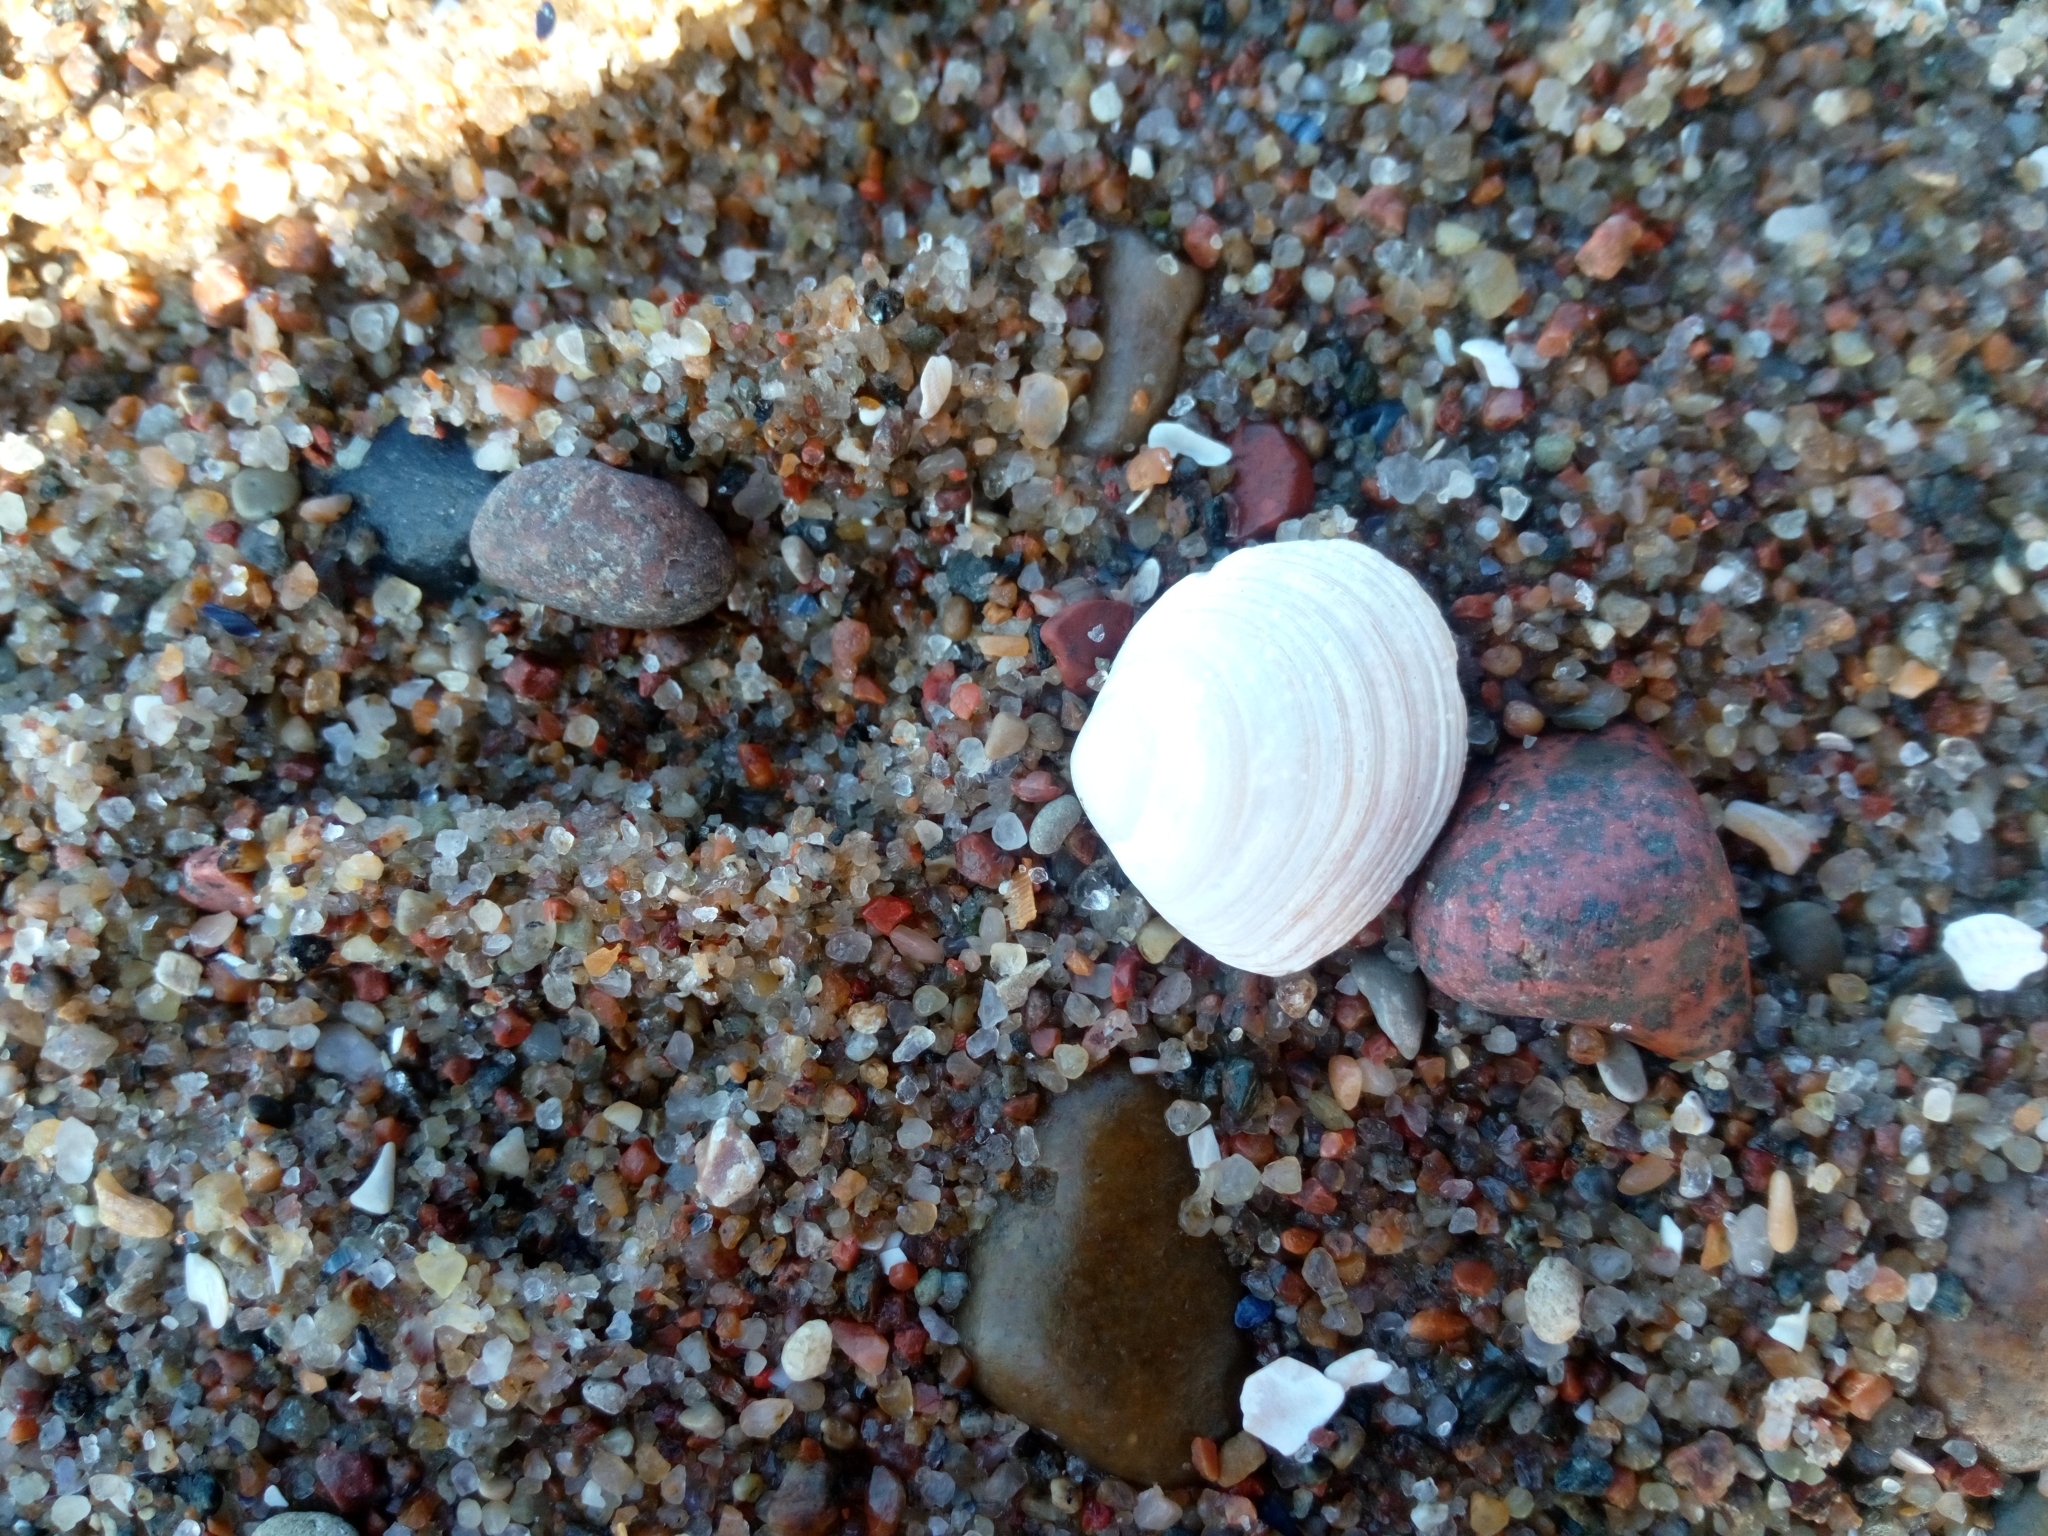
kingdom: Animalia
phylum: Mollusca
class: Bivalvia
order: Cardiida
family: Tellinidae
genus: Macoma
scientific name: Macoma balthica
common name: Baltic tellin
